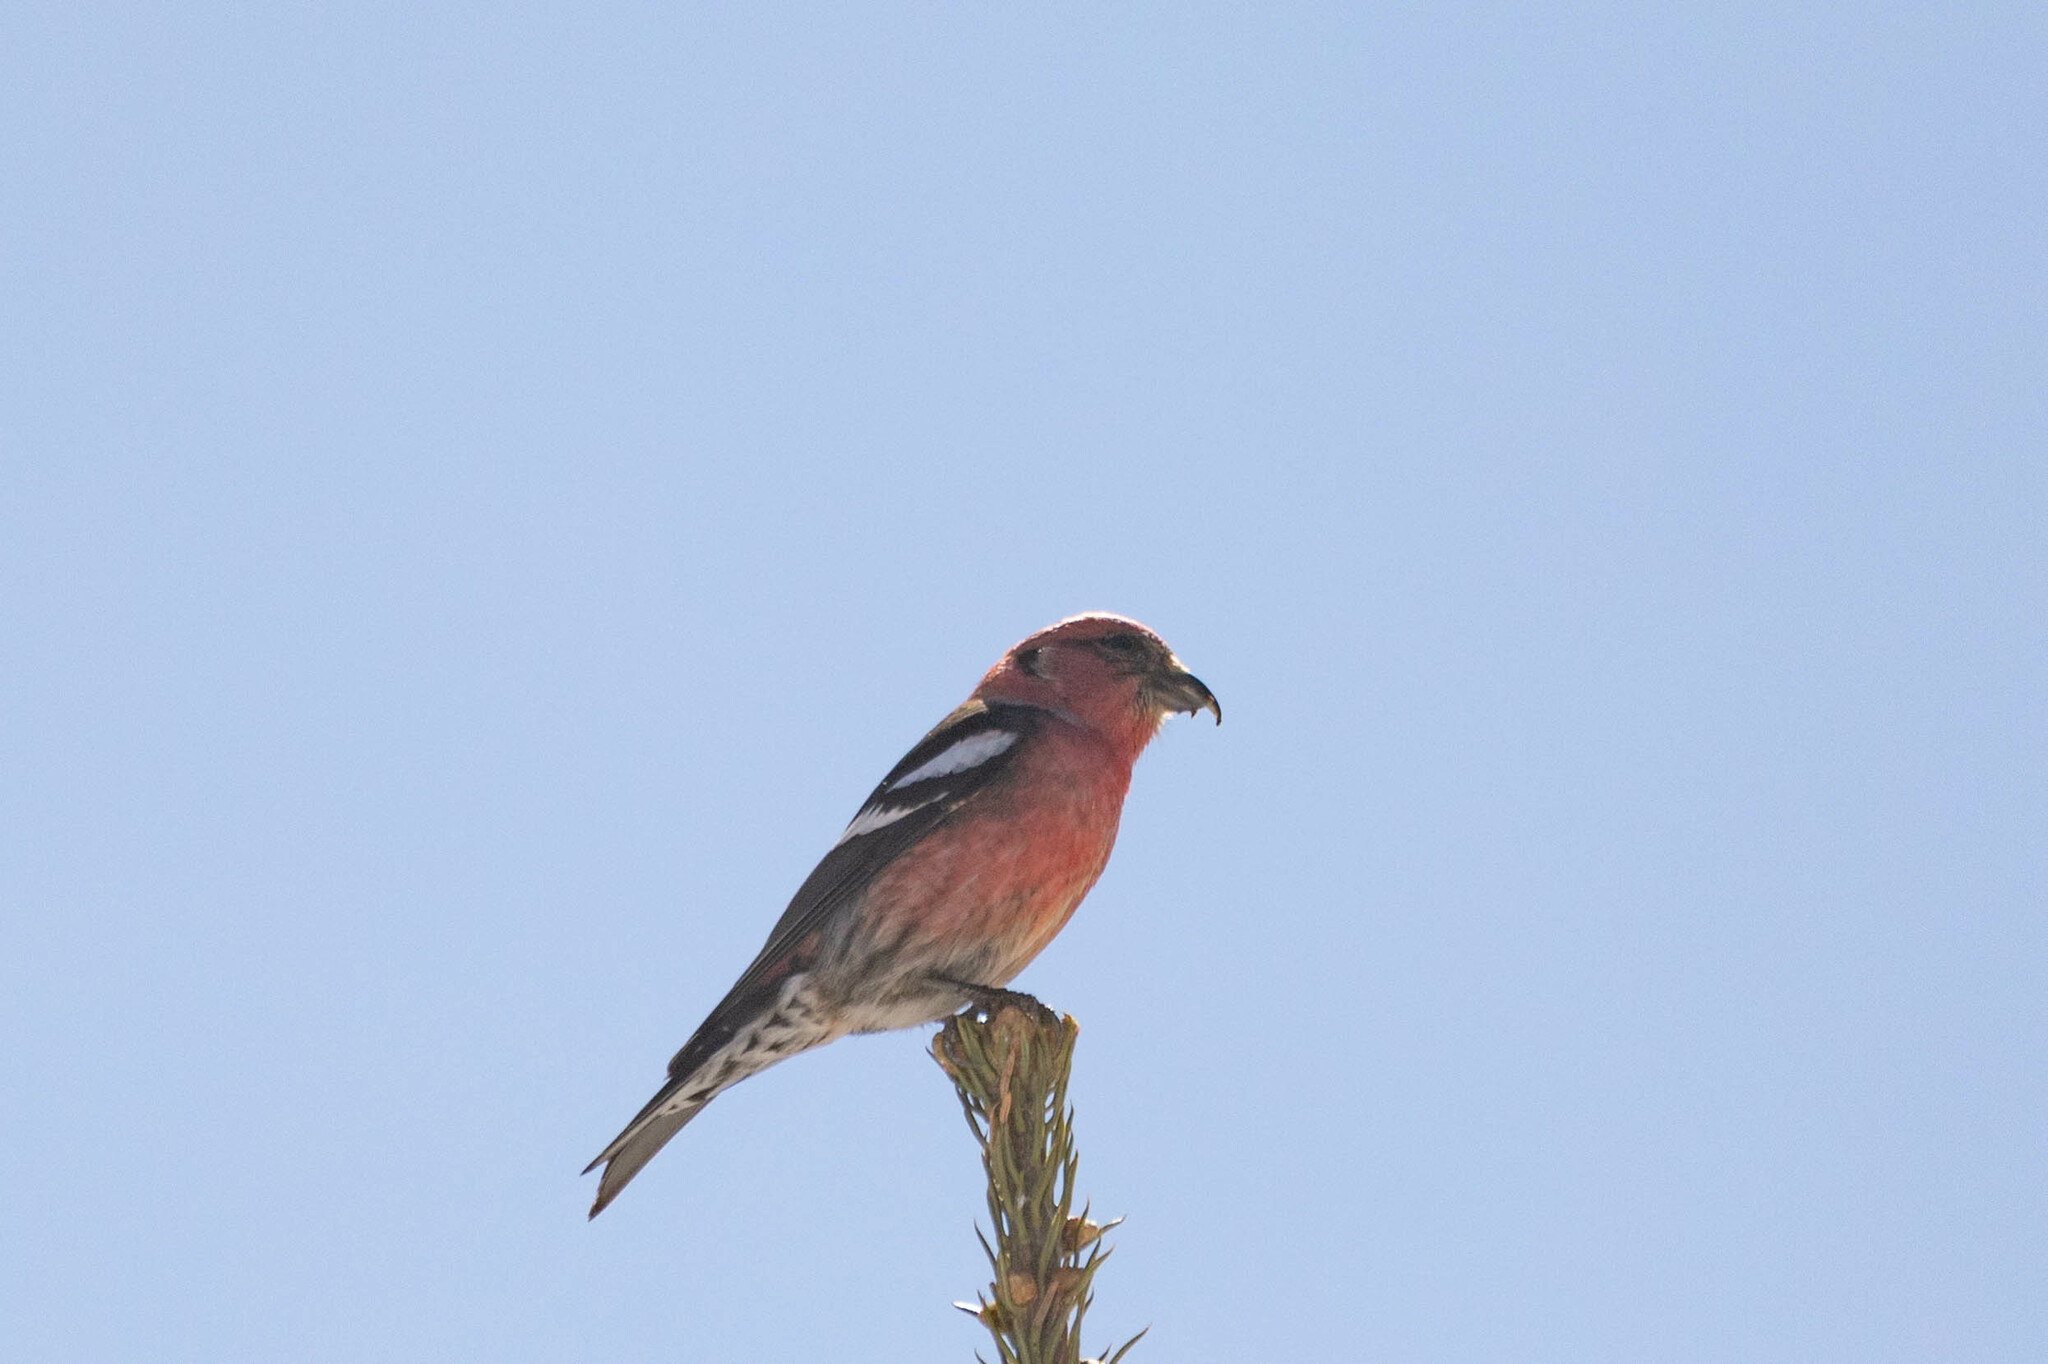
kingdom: Animalia
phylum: Chordata
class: Aves
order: Passeriformes
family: Fringillidae
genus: Loxia
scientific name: Loxia leucoptera
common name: Two-barred crossbill
